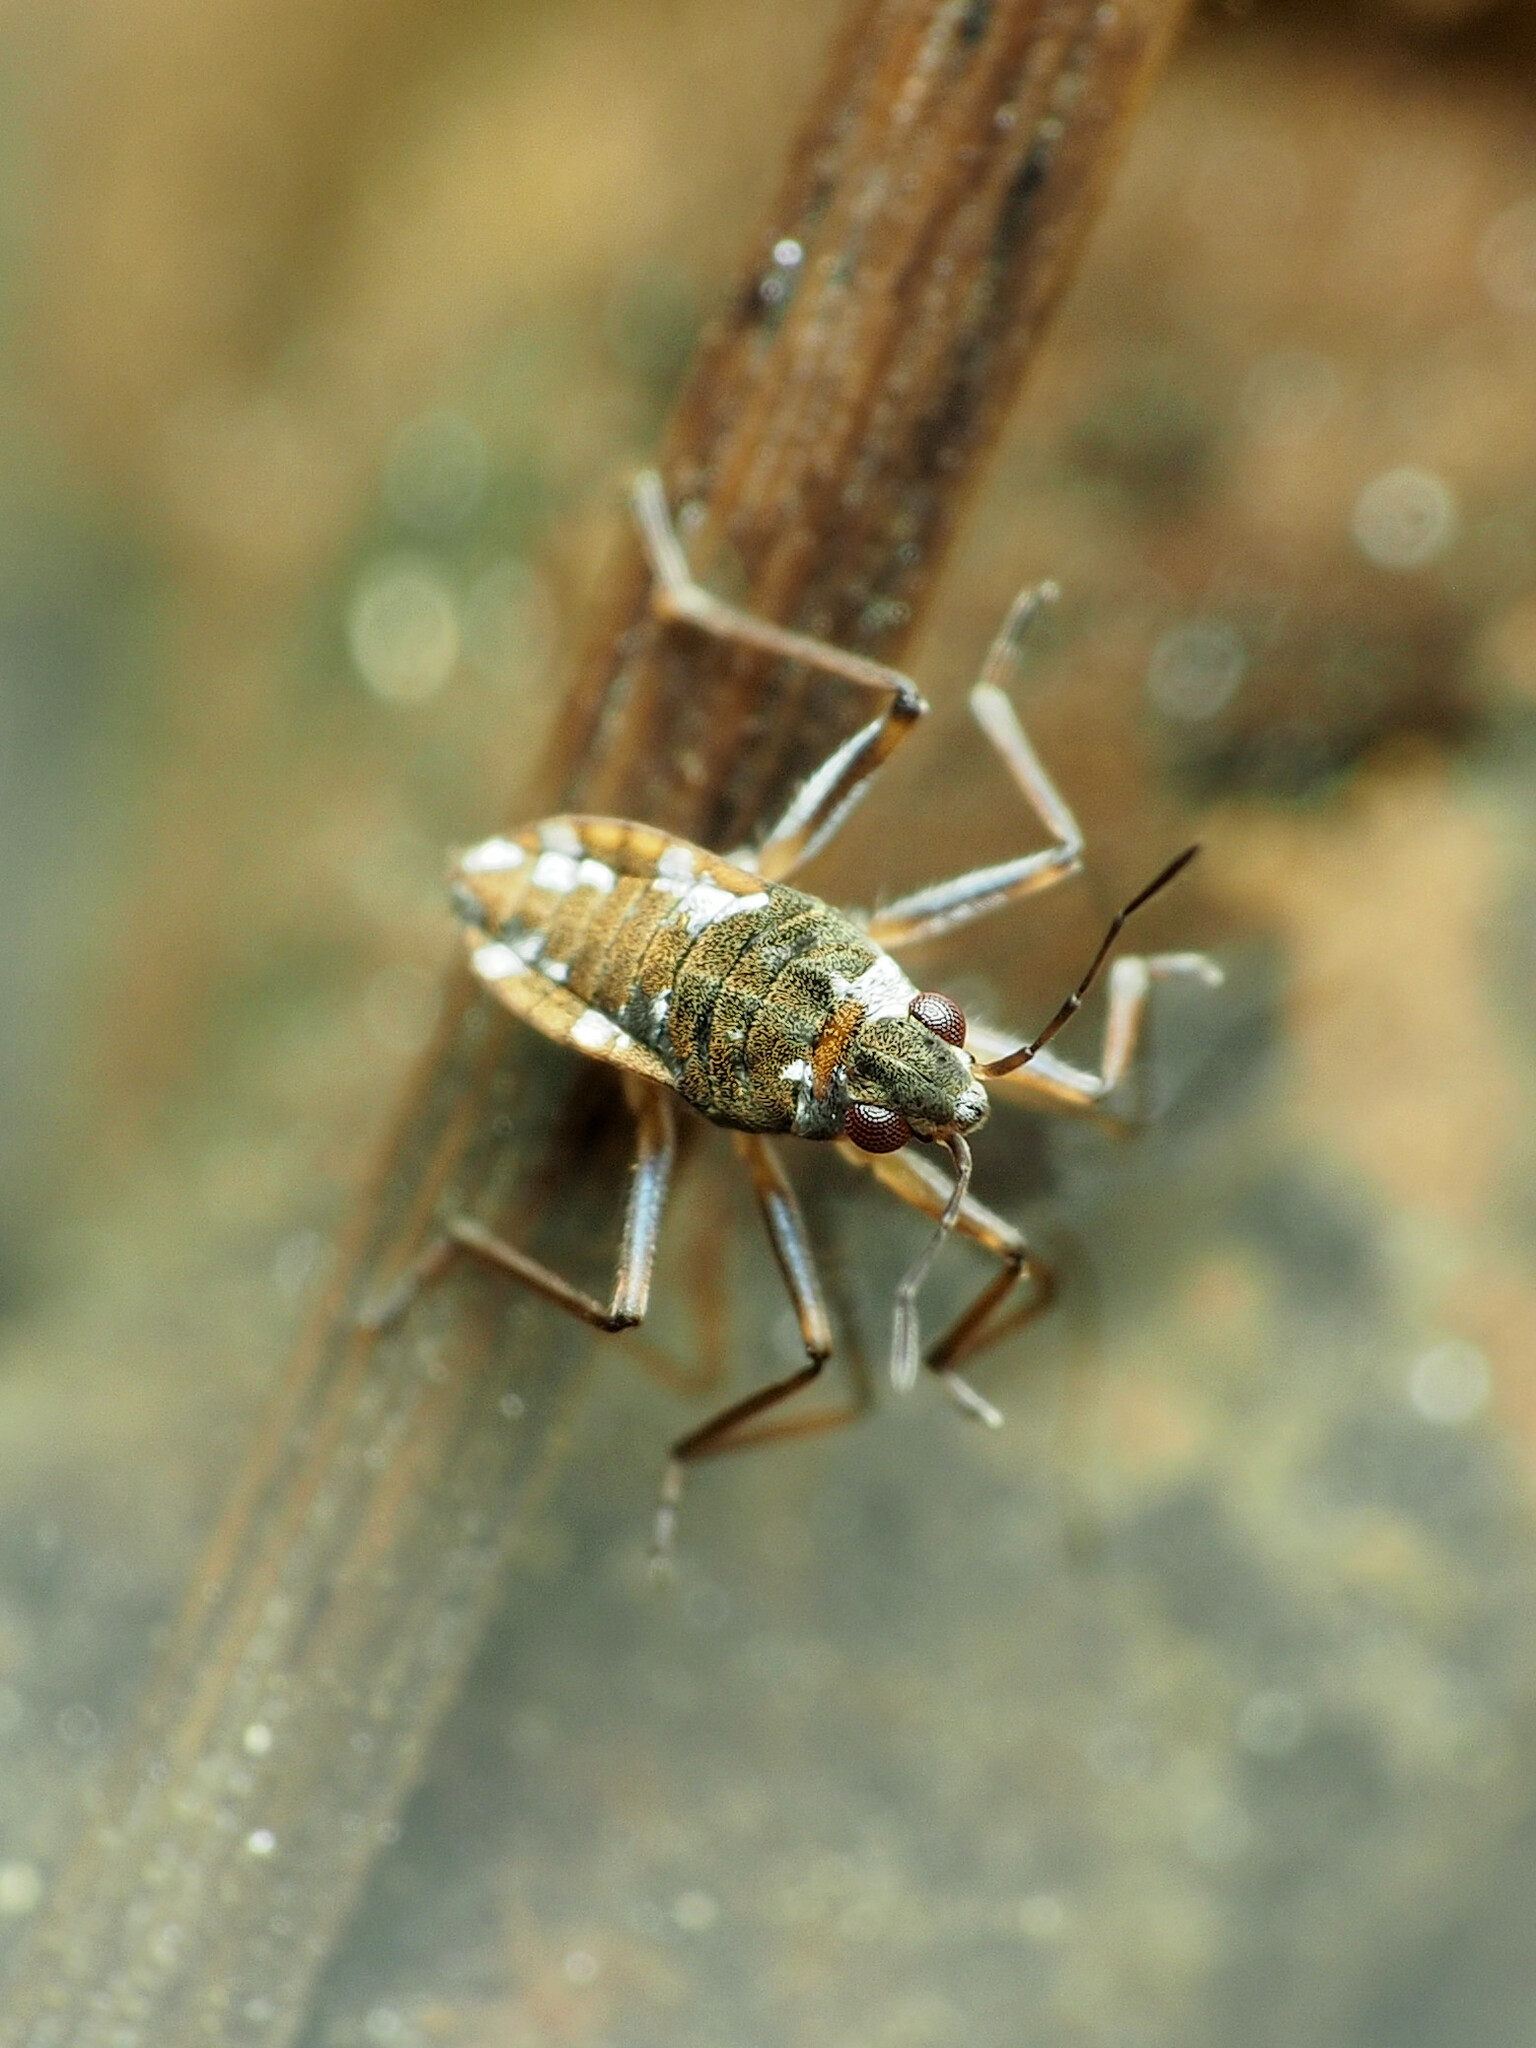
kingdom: Animalia
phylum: Arthropoda
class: Insecta
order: Hemiptera
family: Veliidae
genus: Microvelia
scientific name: Microvelia americana
